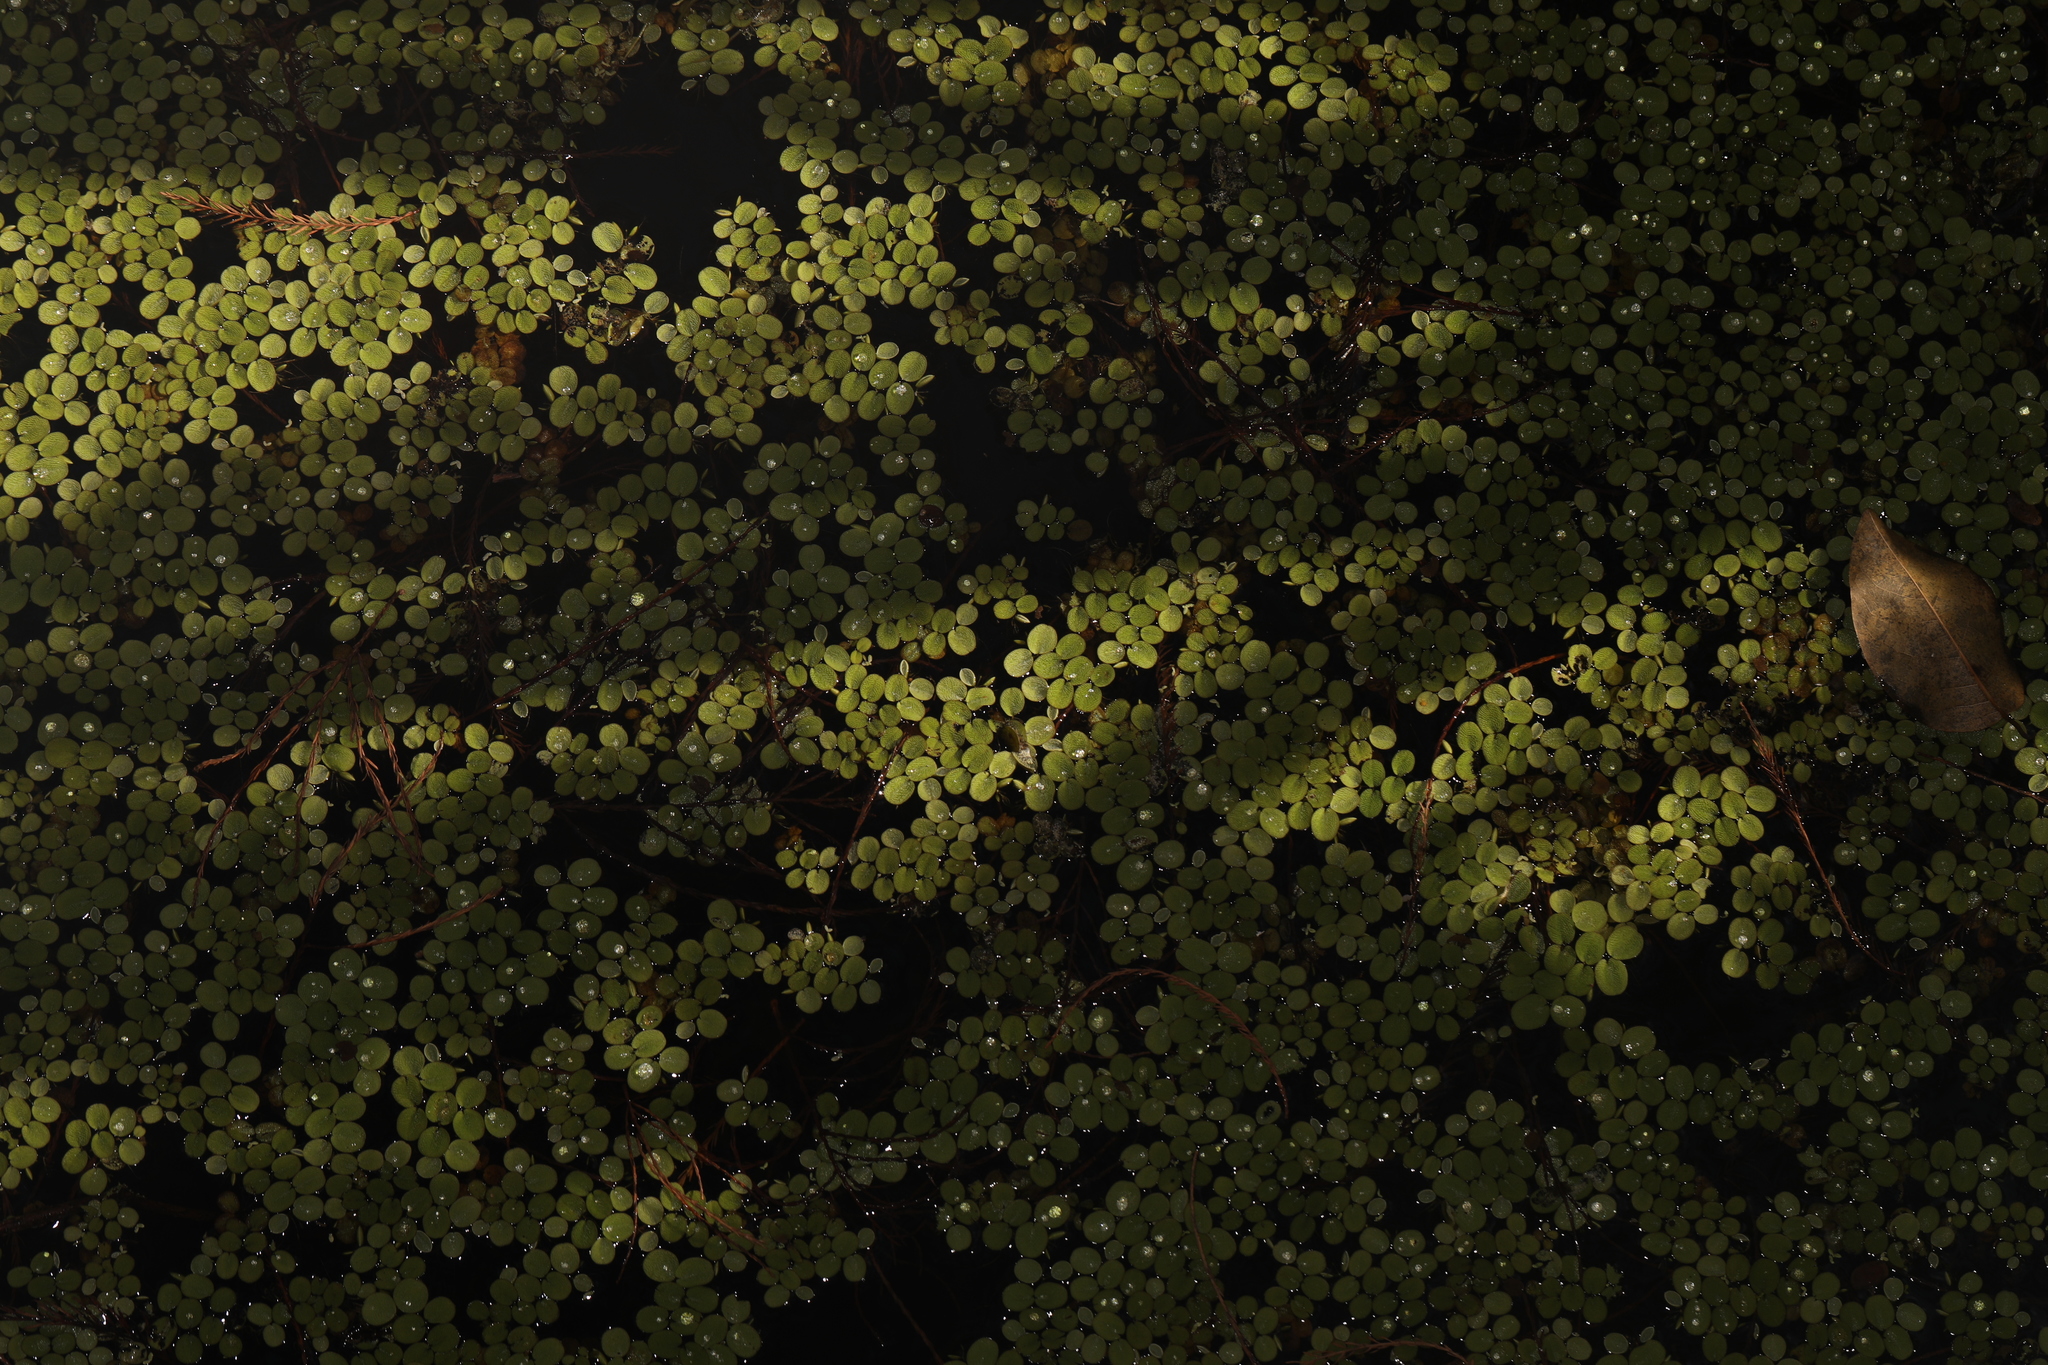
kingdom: Plantae
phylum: Tracheophyta
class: Polypodiopsida
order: Salviniales
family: Salviniaceae
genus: Salvinia
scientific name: Salvinia minima
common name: Water spangles
